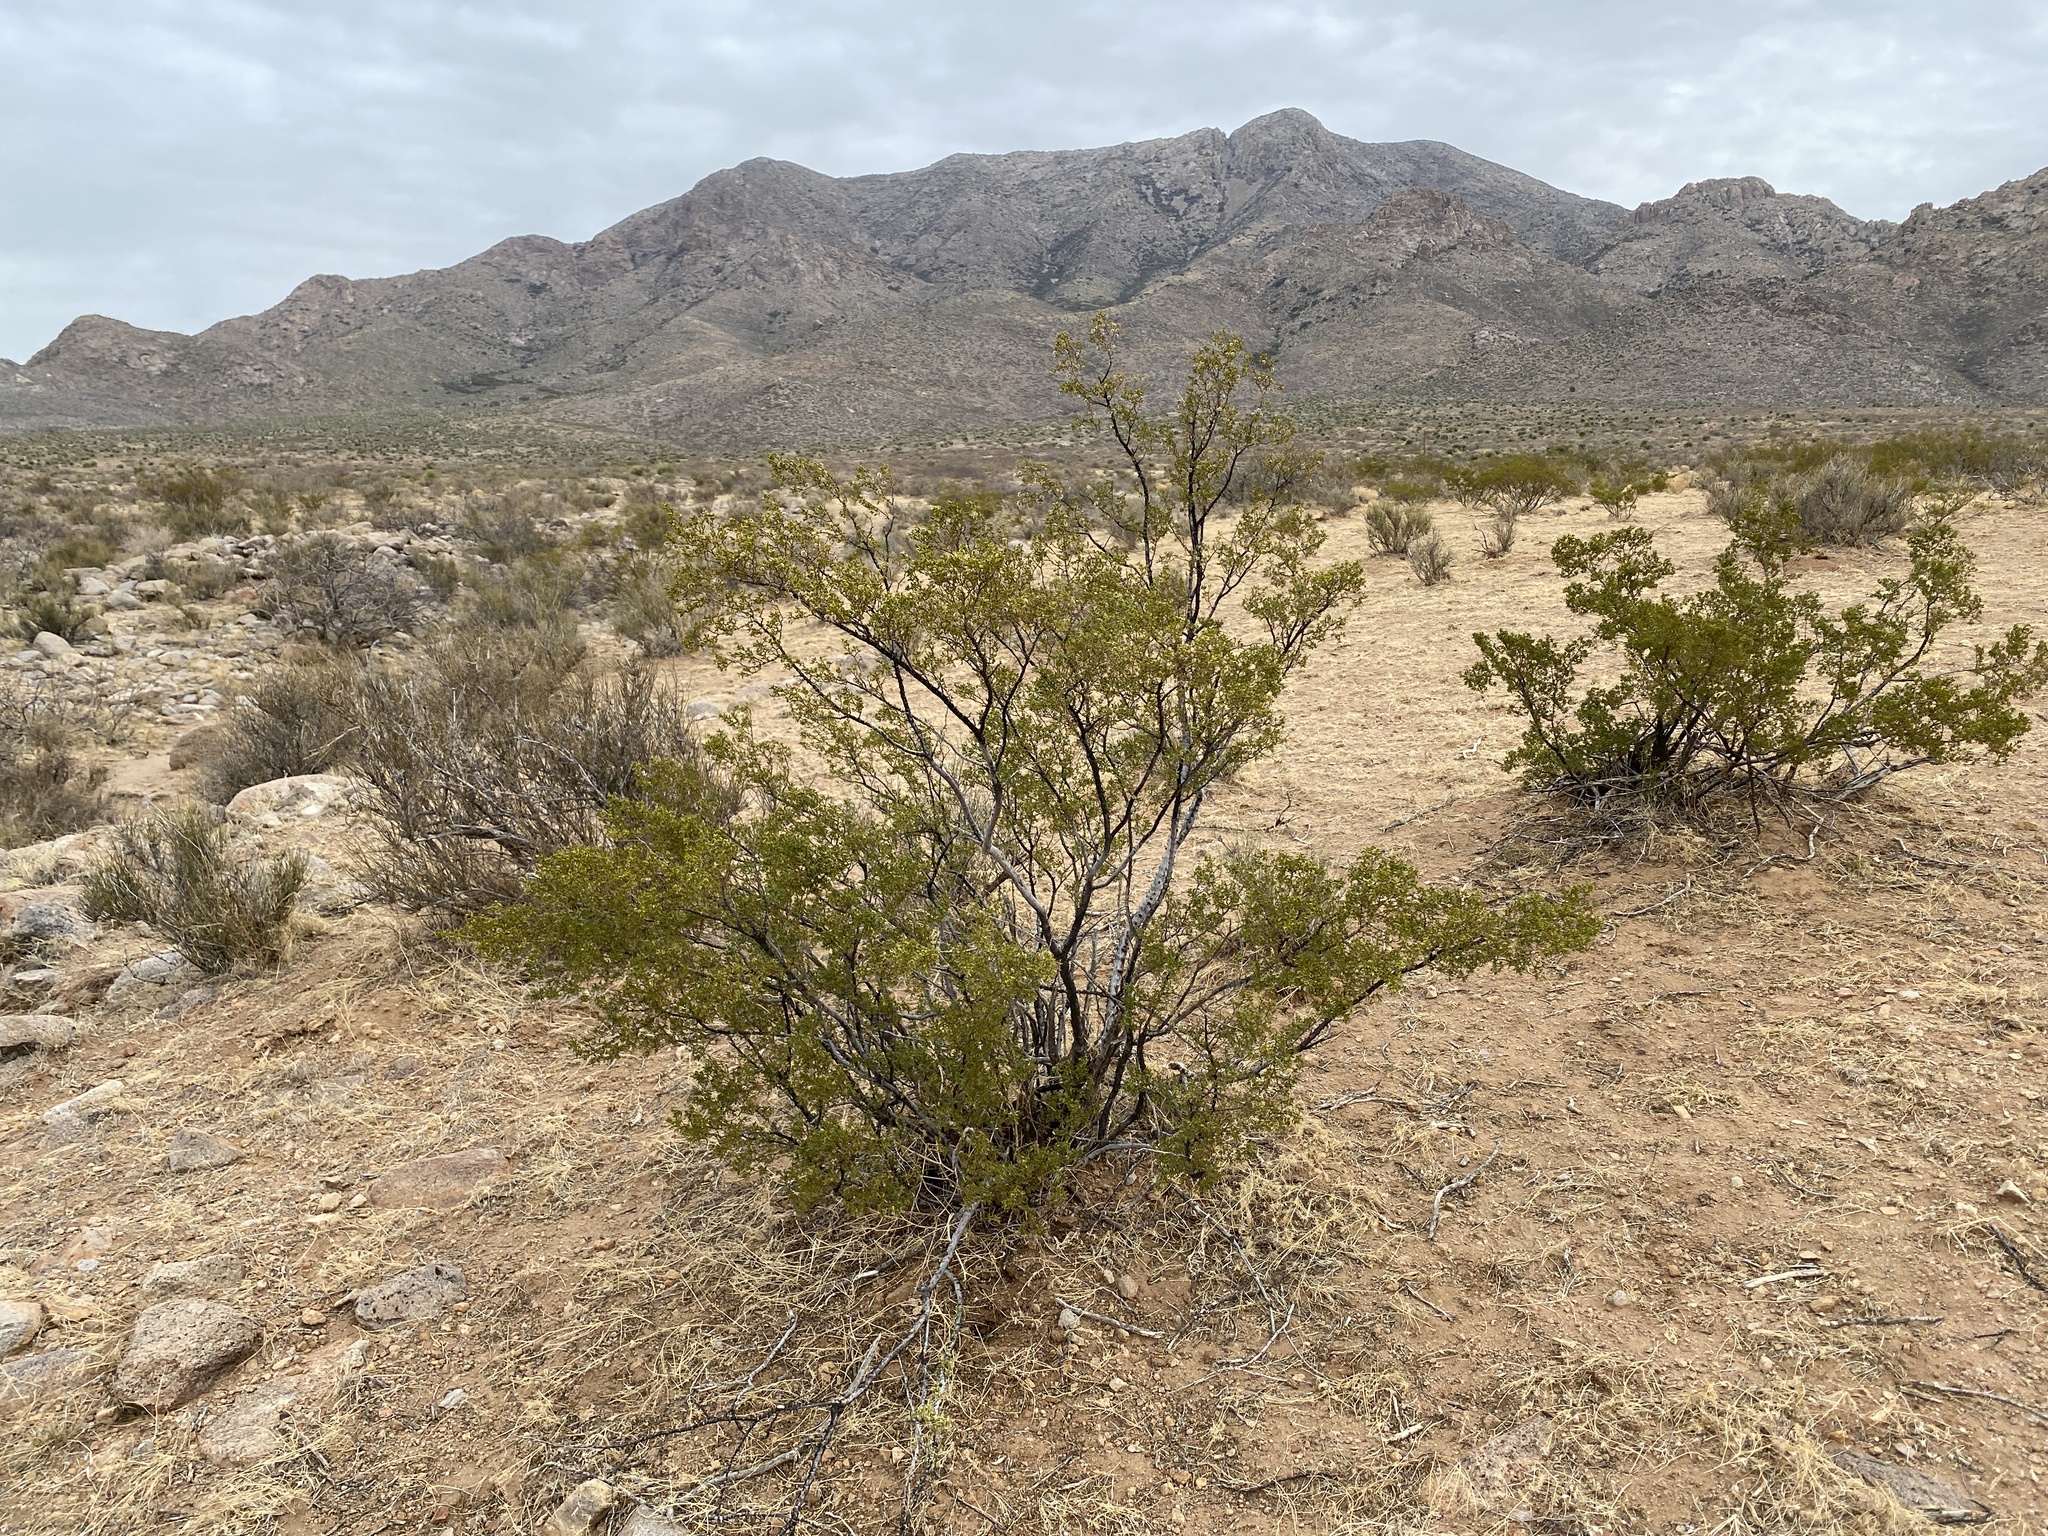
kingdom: Plantae
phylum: Tracheophyta
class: Magnoliopsida
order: Zygophyllales
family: Zygophyllaceae
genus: Larrea
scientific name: Larrea tridentata
